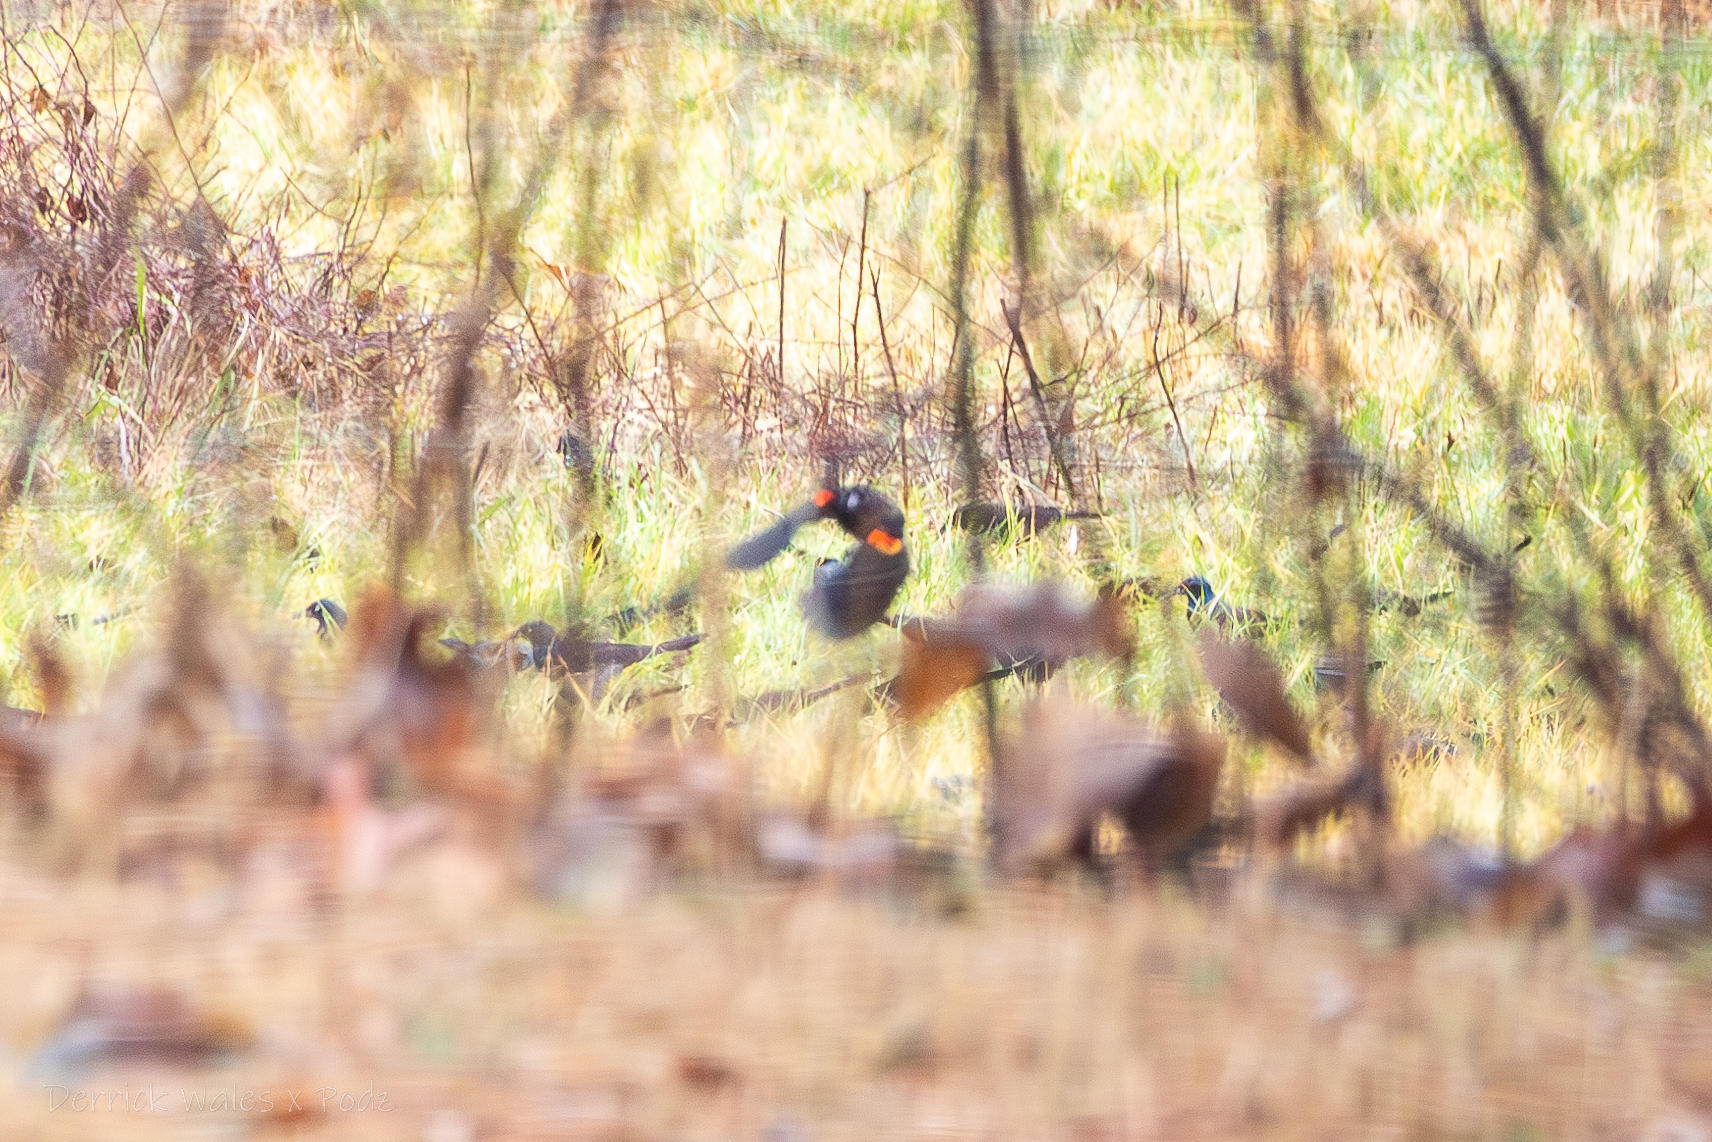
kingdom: Animalia
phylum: Chordata
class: Aves
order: Passeriformes
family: Icteridae
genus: Agelaius
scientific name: Agelaius phoeniceus
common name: Red-winged blackbird
